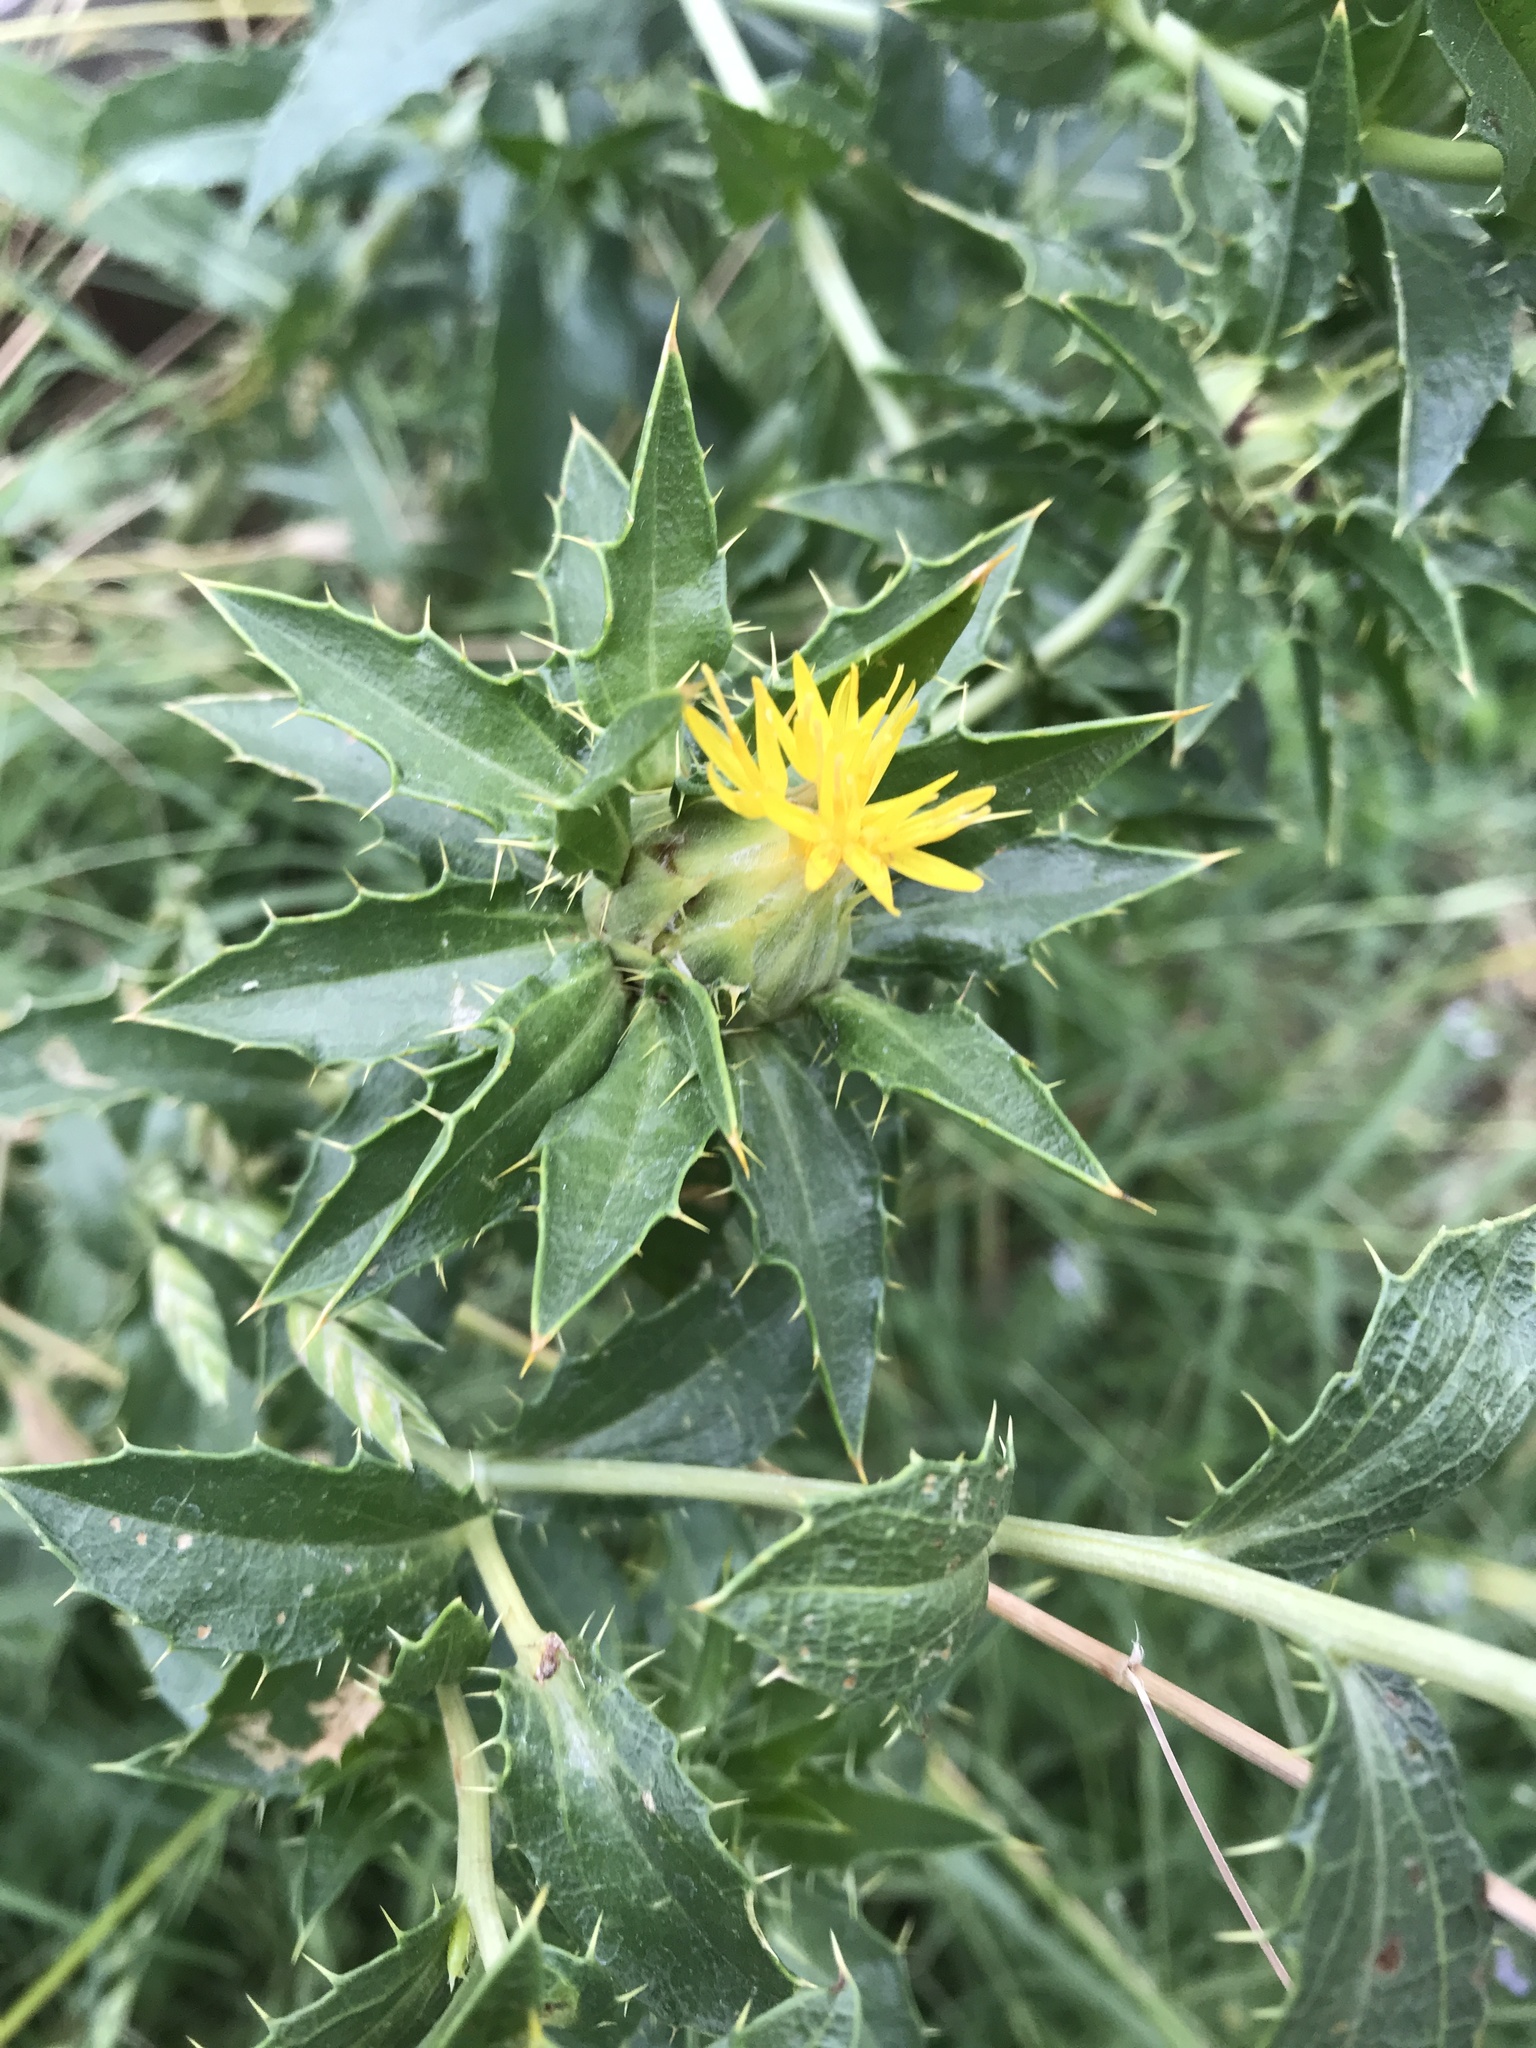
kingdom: Plantae
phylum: Tracheophyta
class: Magnoliopsida
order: Asterales
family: Asteraceae
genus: Carthamus
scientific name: Carthamus tinctorius
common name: Safflower
